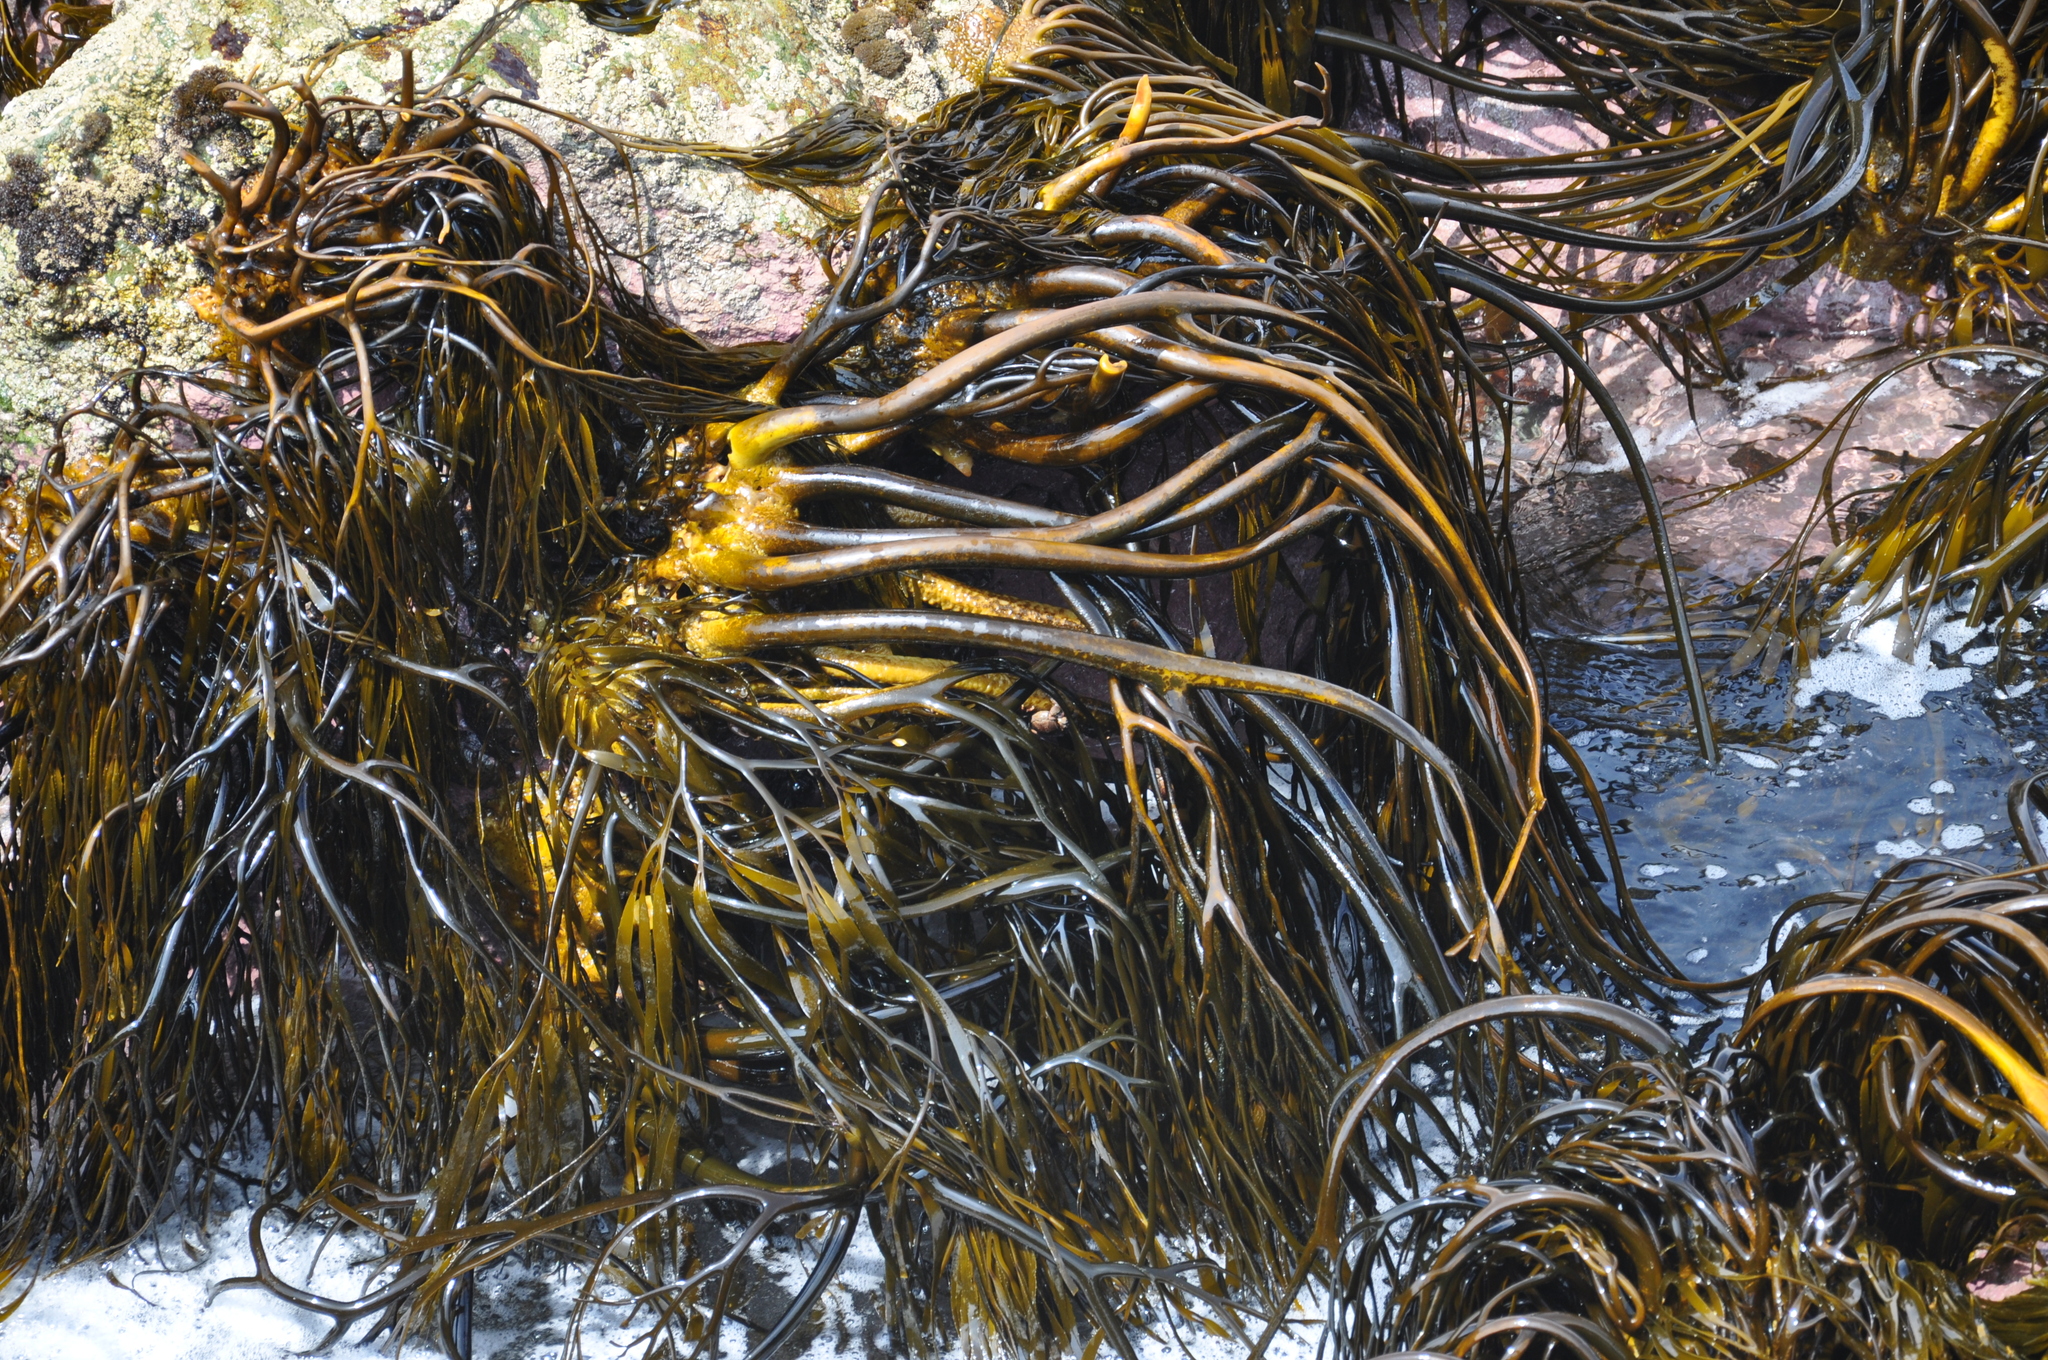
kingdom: Chromista
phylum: Ochrophyta
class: Phaeophyceae
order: Laminariales
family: Lessoniaceae
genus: Lessonia
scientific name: Lessonia
